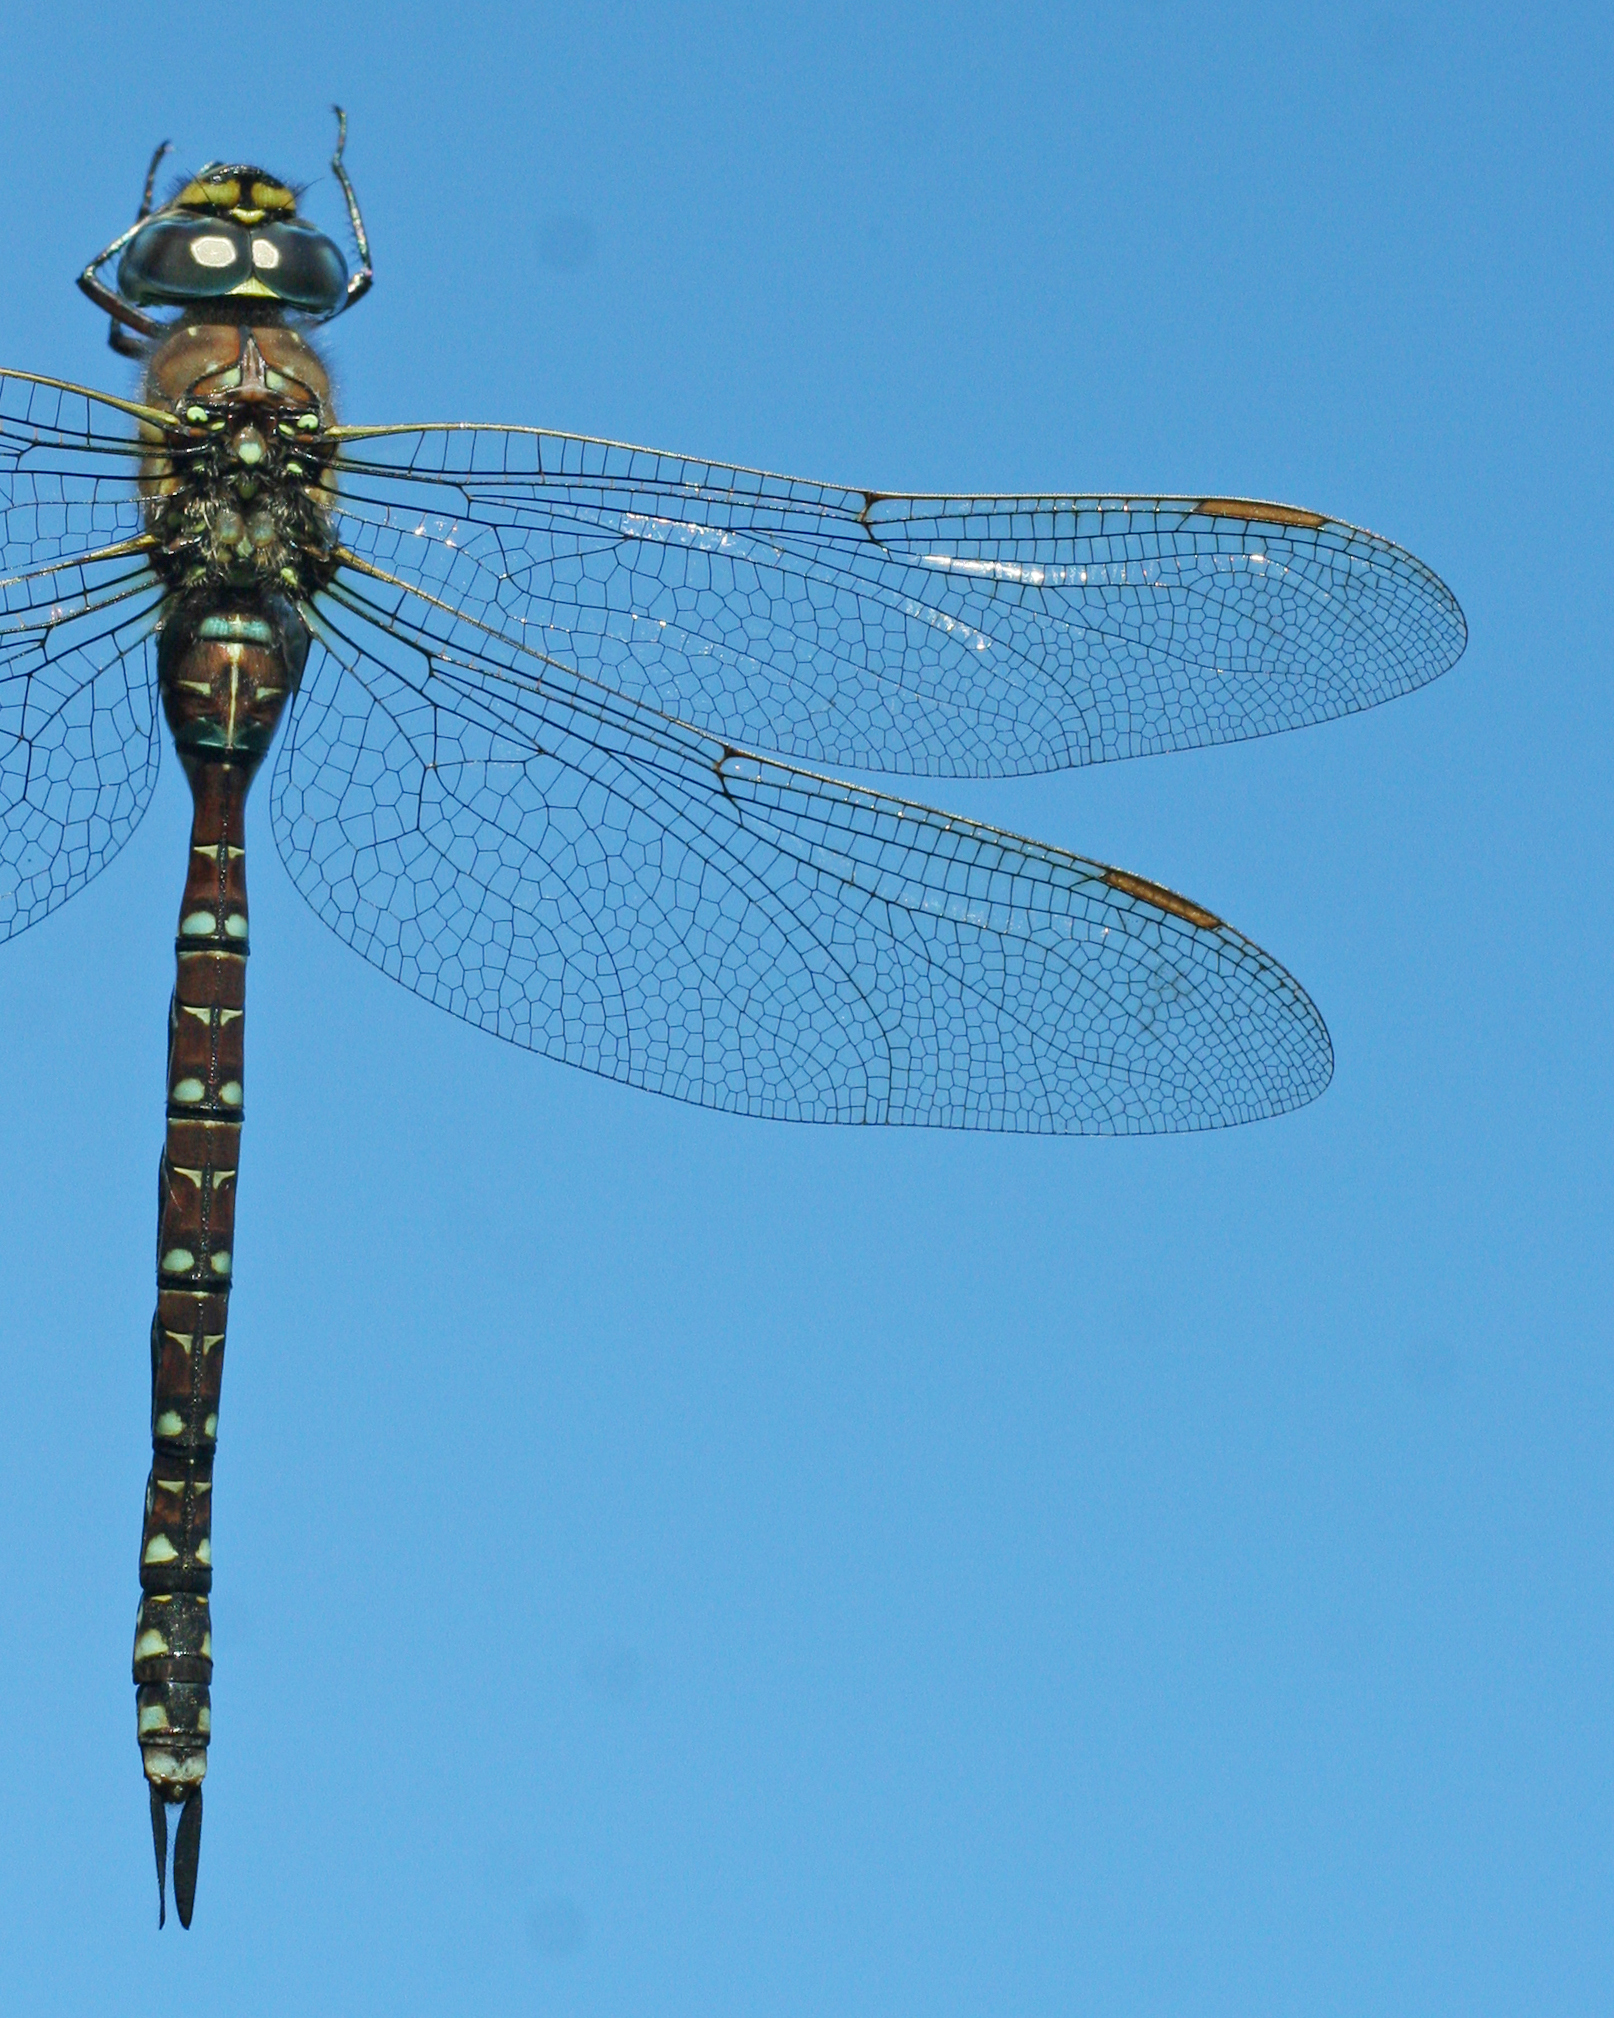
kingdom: Animalia
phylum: Arthropoda
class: Insecta
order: Odonata
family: Aeshnidae
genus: Aeshna
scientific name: Aeshna juncea
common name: Moorland hawker
